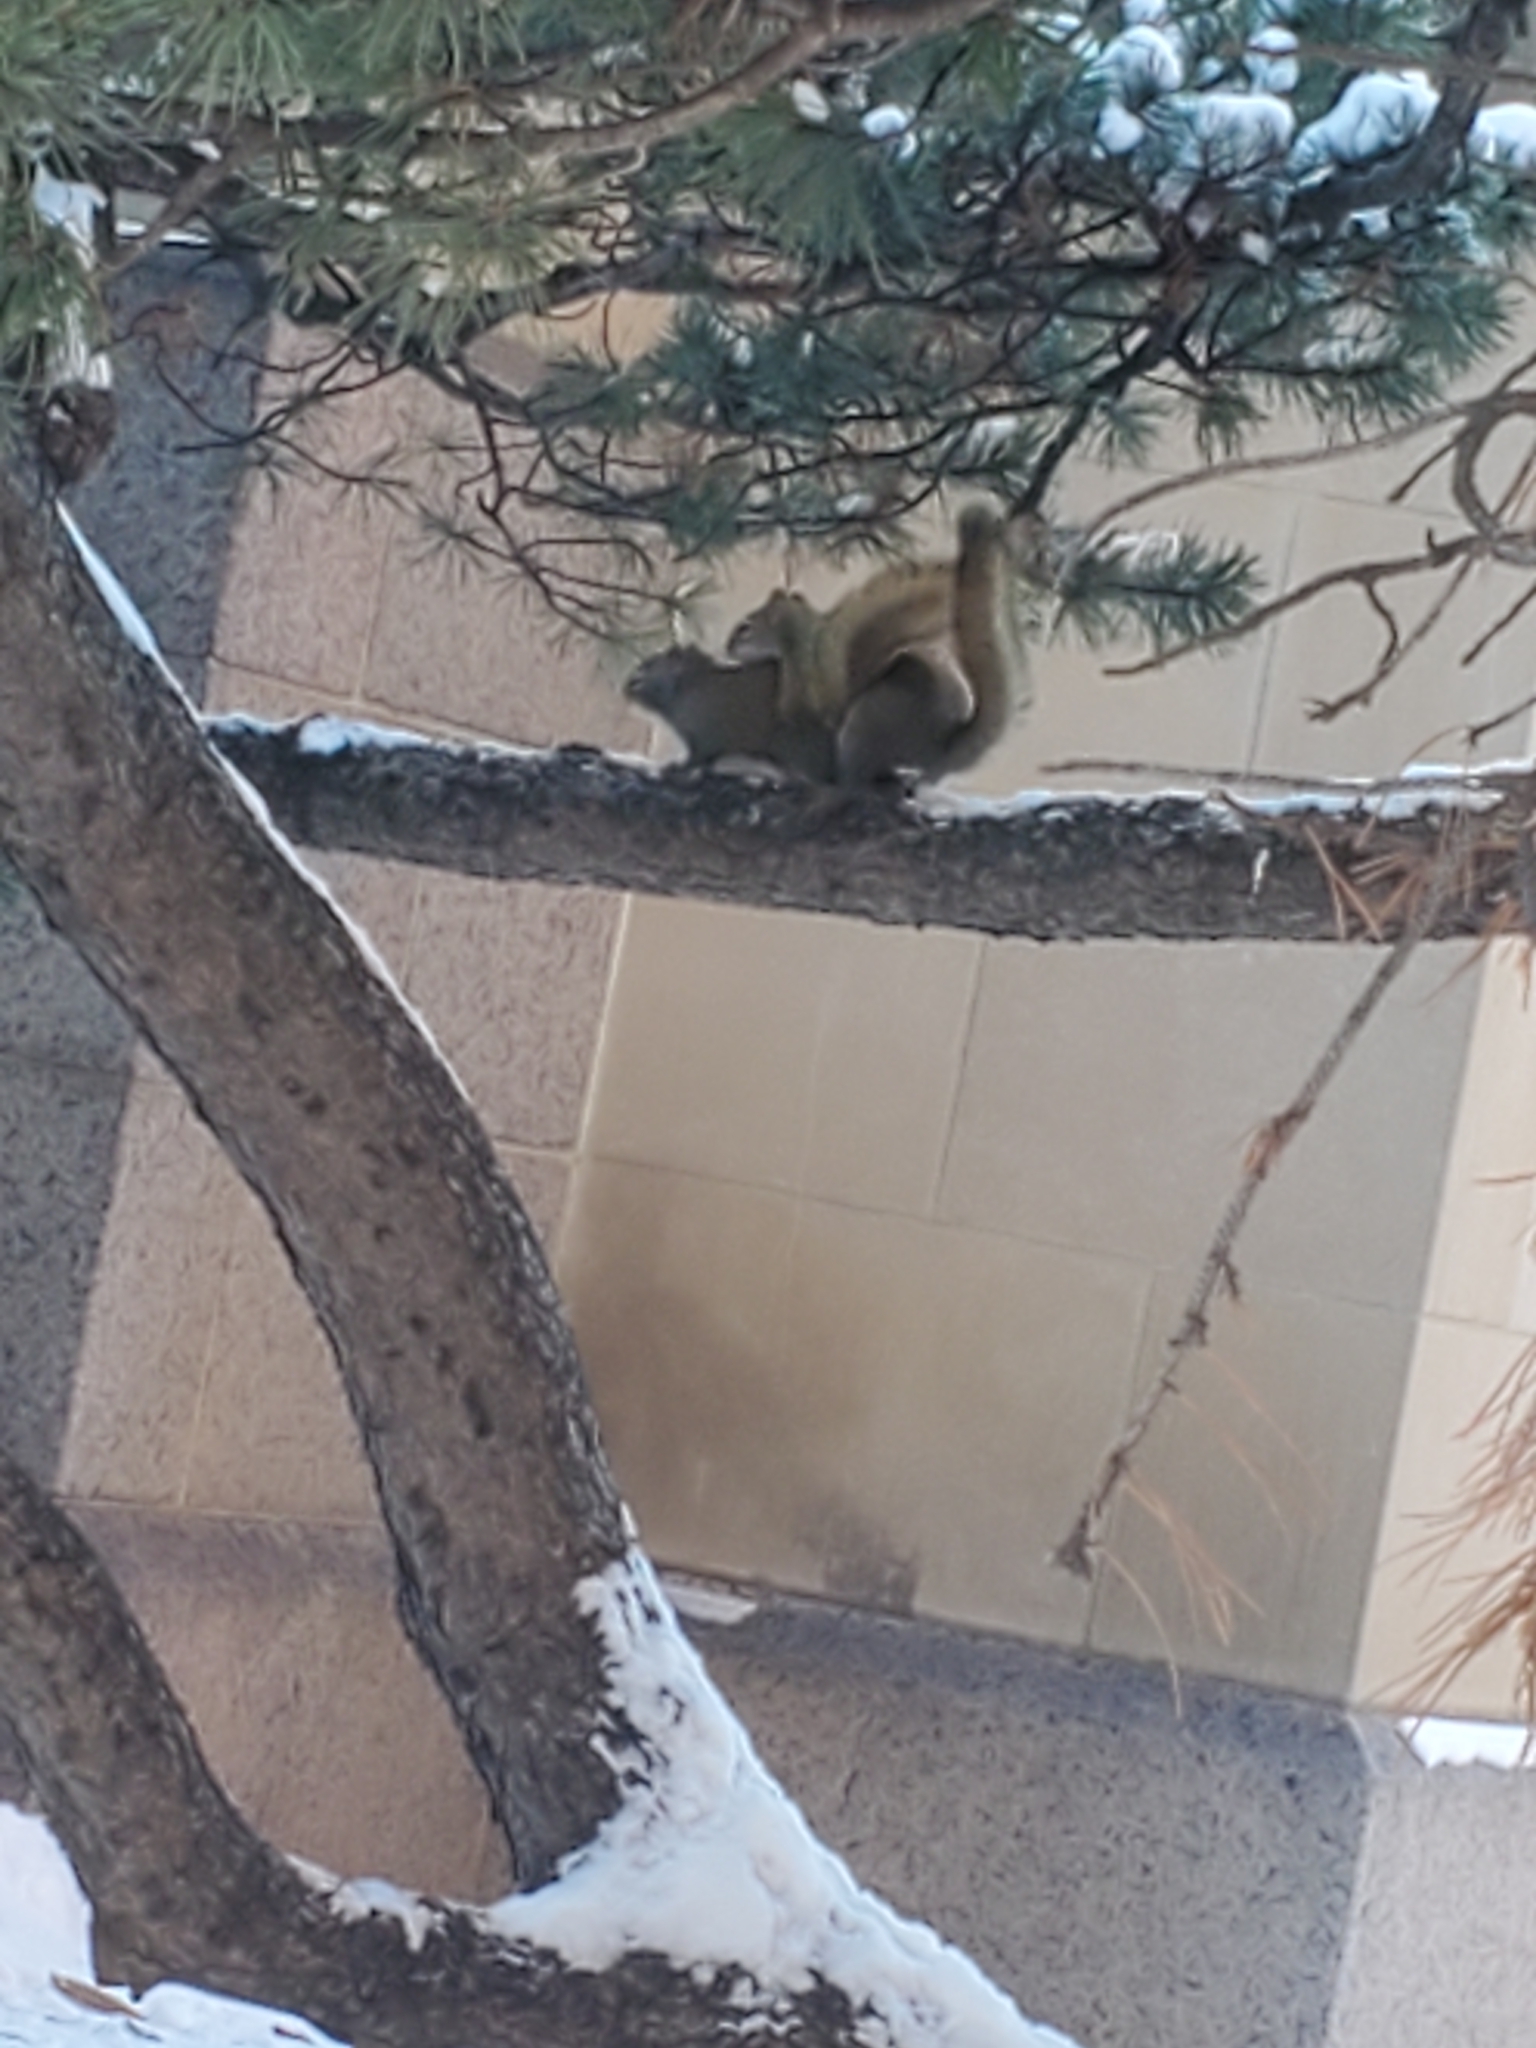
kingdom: Animalia
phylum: Chordata
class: Mammalia
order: Rodentia
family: Sciuridae
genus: Tamiasciurus
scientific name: Tamiasciurus hudsonicus
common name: Red squirrel
